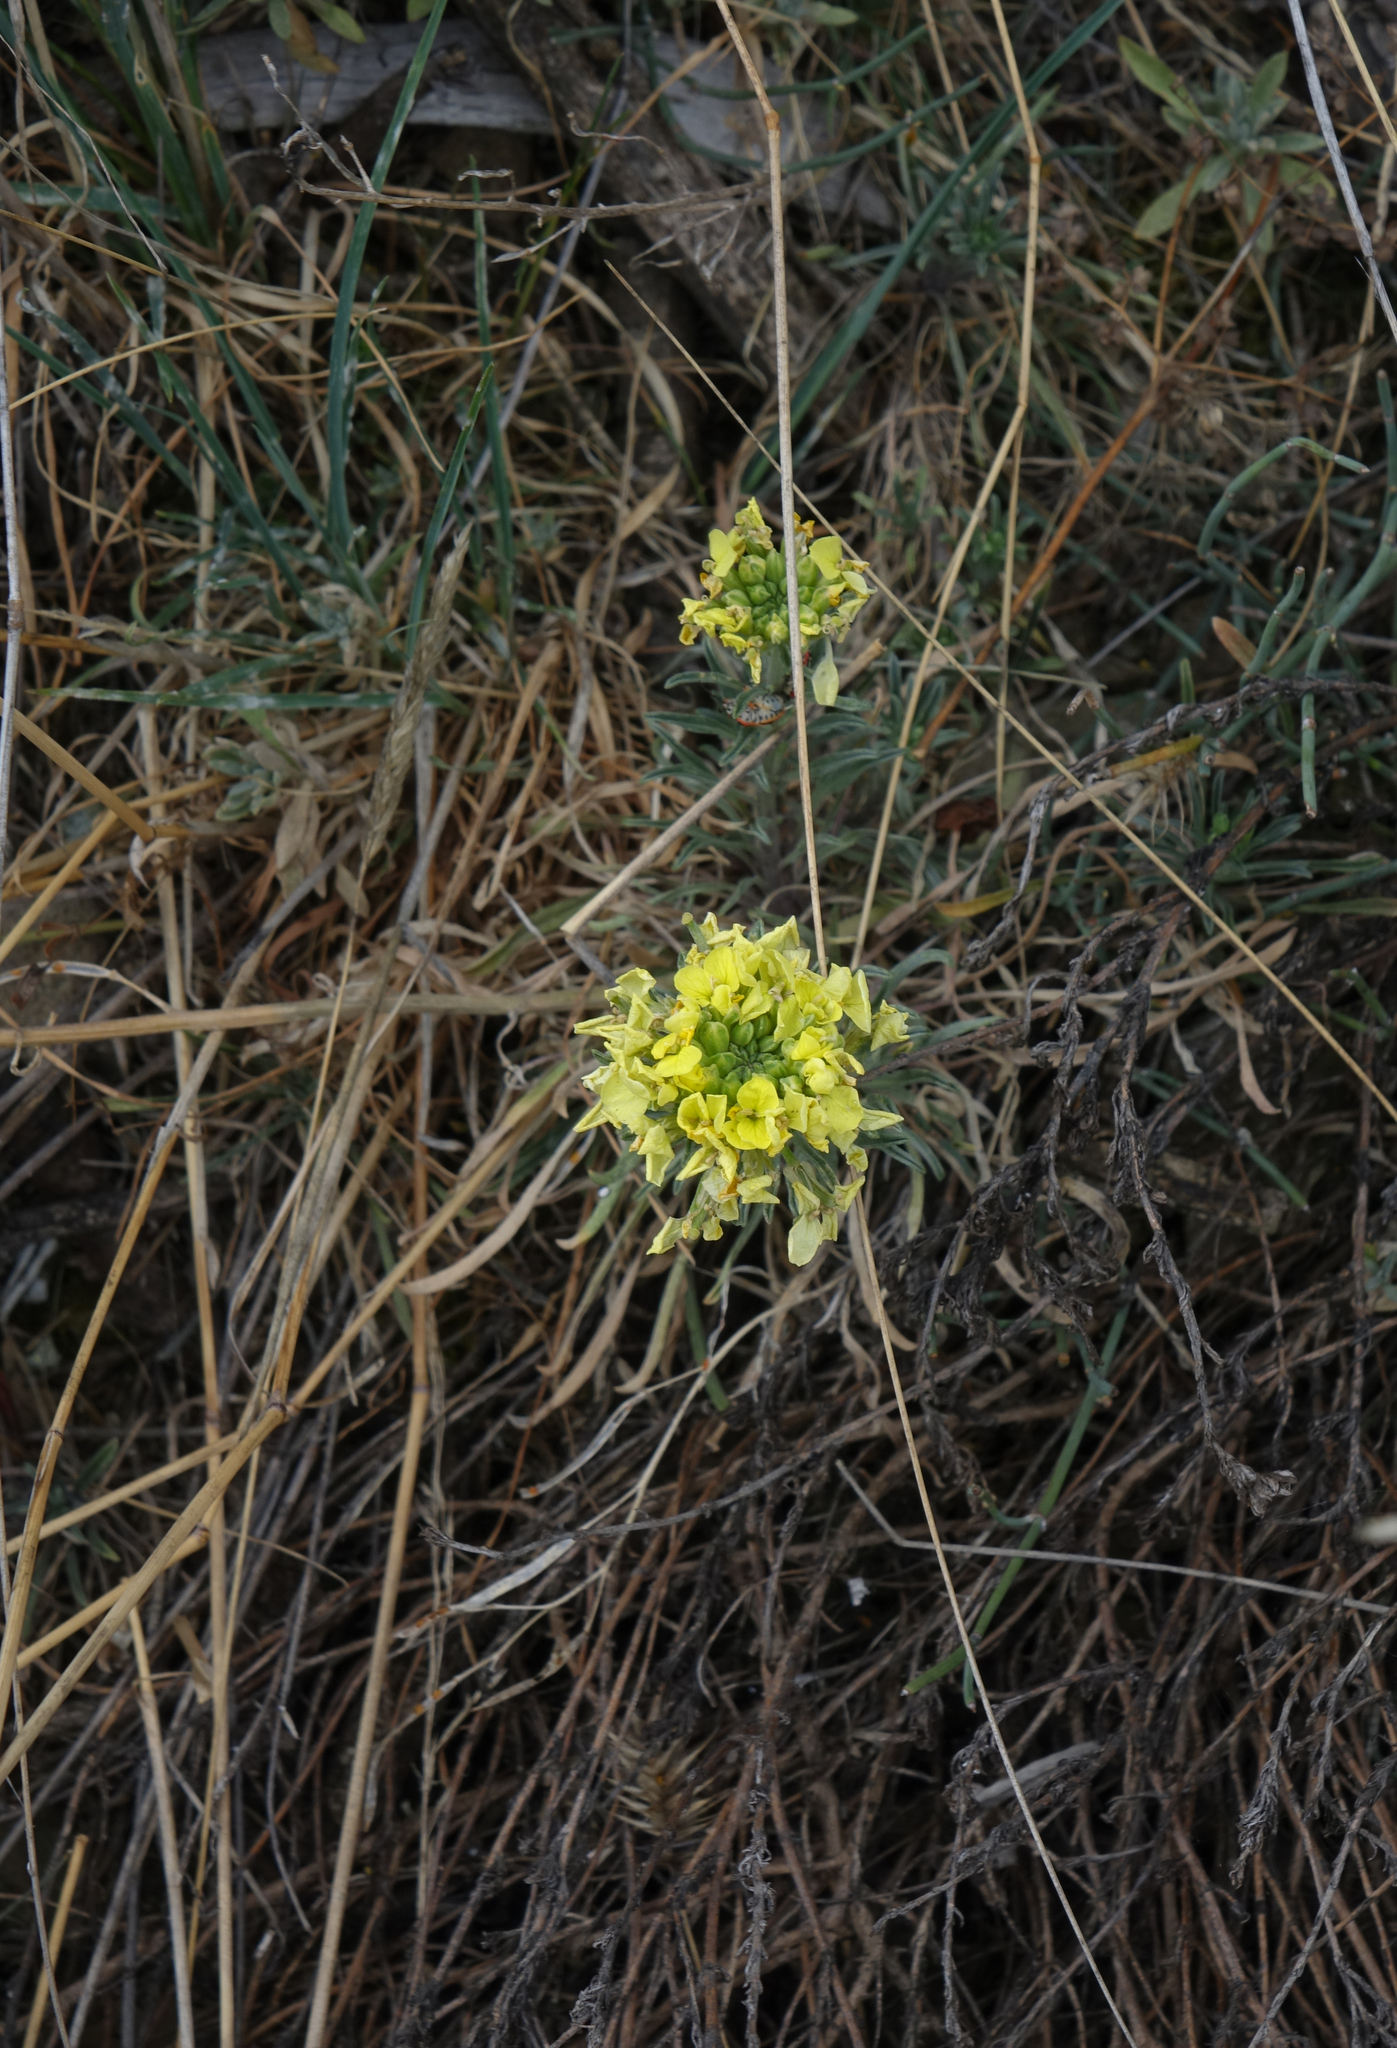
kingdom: Plantae
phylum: Tracheophyta
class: Magnoliopsida
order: Brassicales
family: Brassicaceae
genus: Erysimum
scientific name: Erysimum flavum
